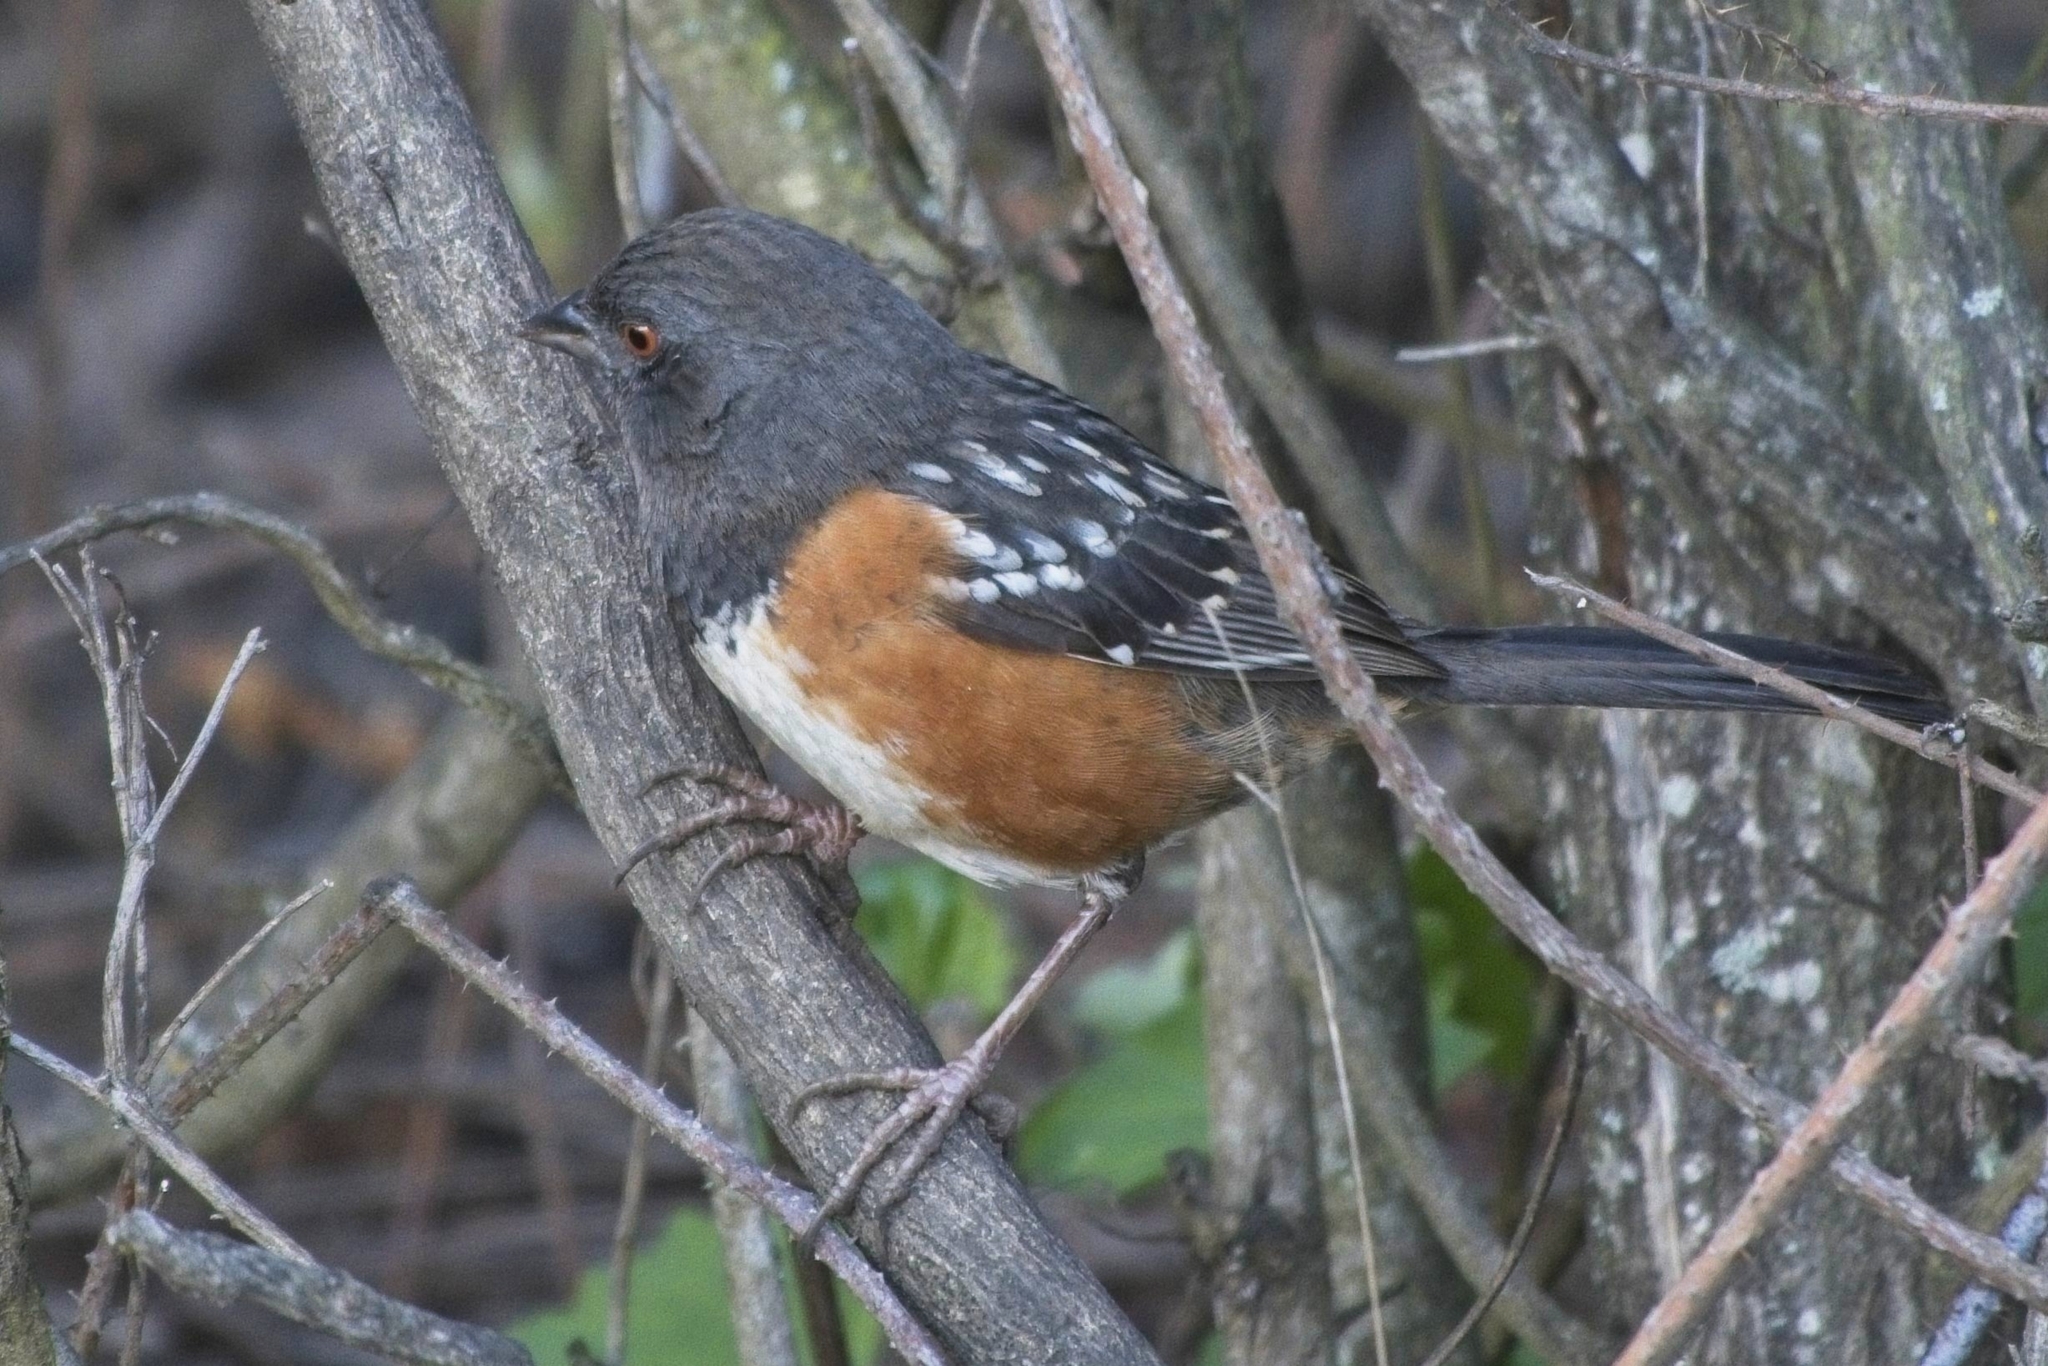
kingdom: Animalia
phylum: Chordata
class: Aves
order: Passeriformes
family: Passerellidae
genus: Pipilo
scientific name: Pipilo maculatus
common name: Spotted towhee
